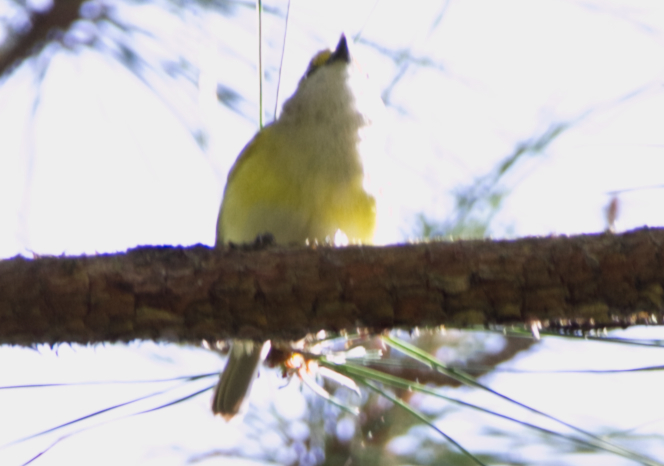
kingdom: Animalia
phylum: Chordata
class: Aves
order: Passeriformes
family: Vireonidae
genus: Vireo
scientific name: Vireo griseus
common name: White-eyed vireo
